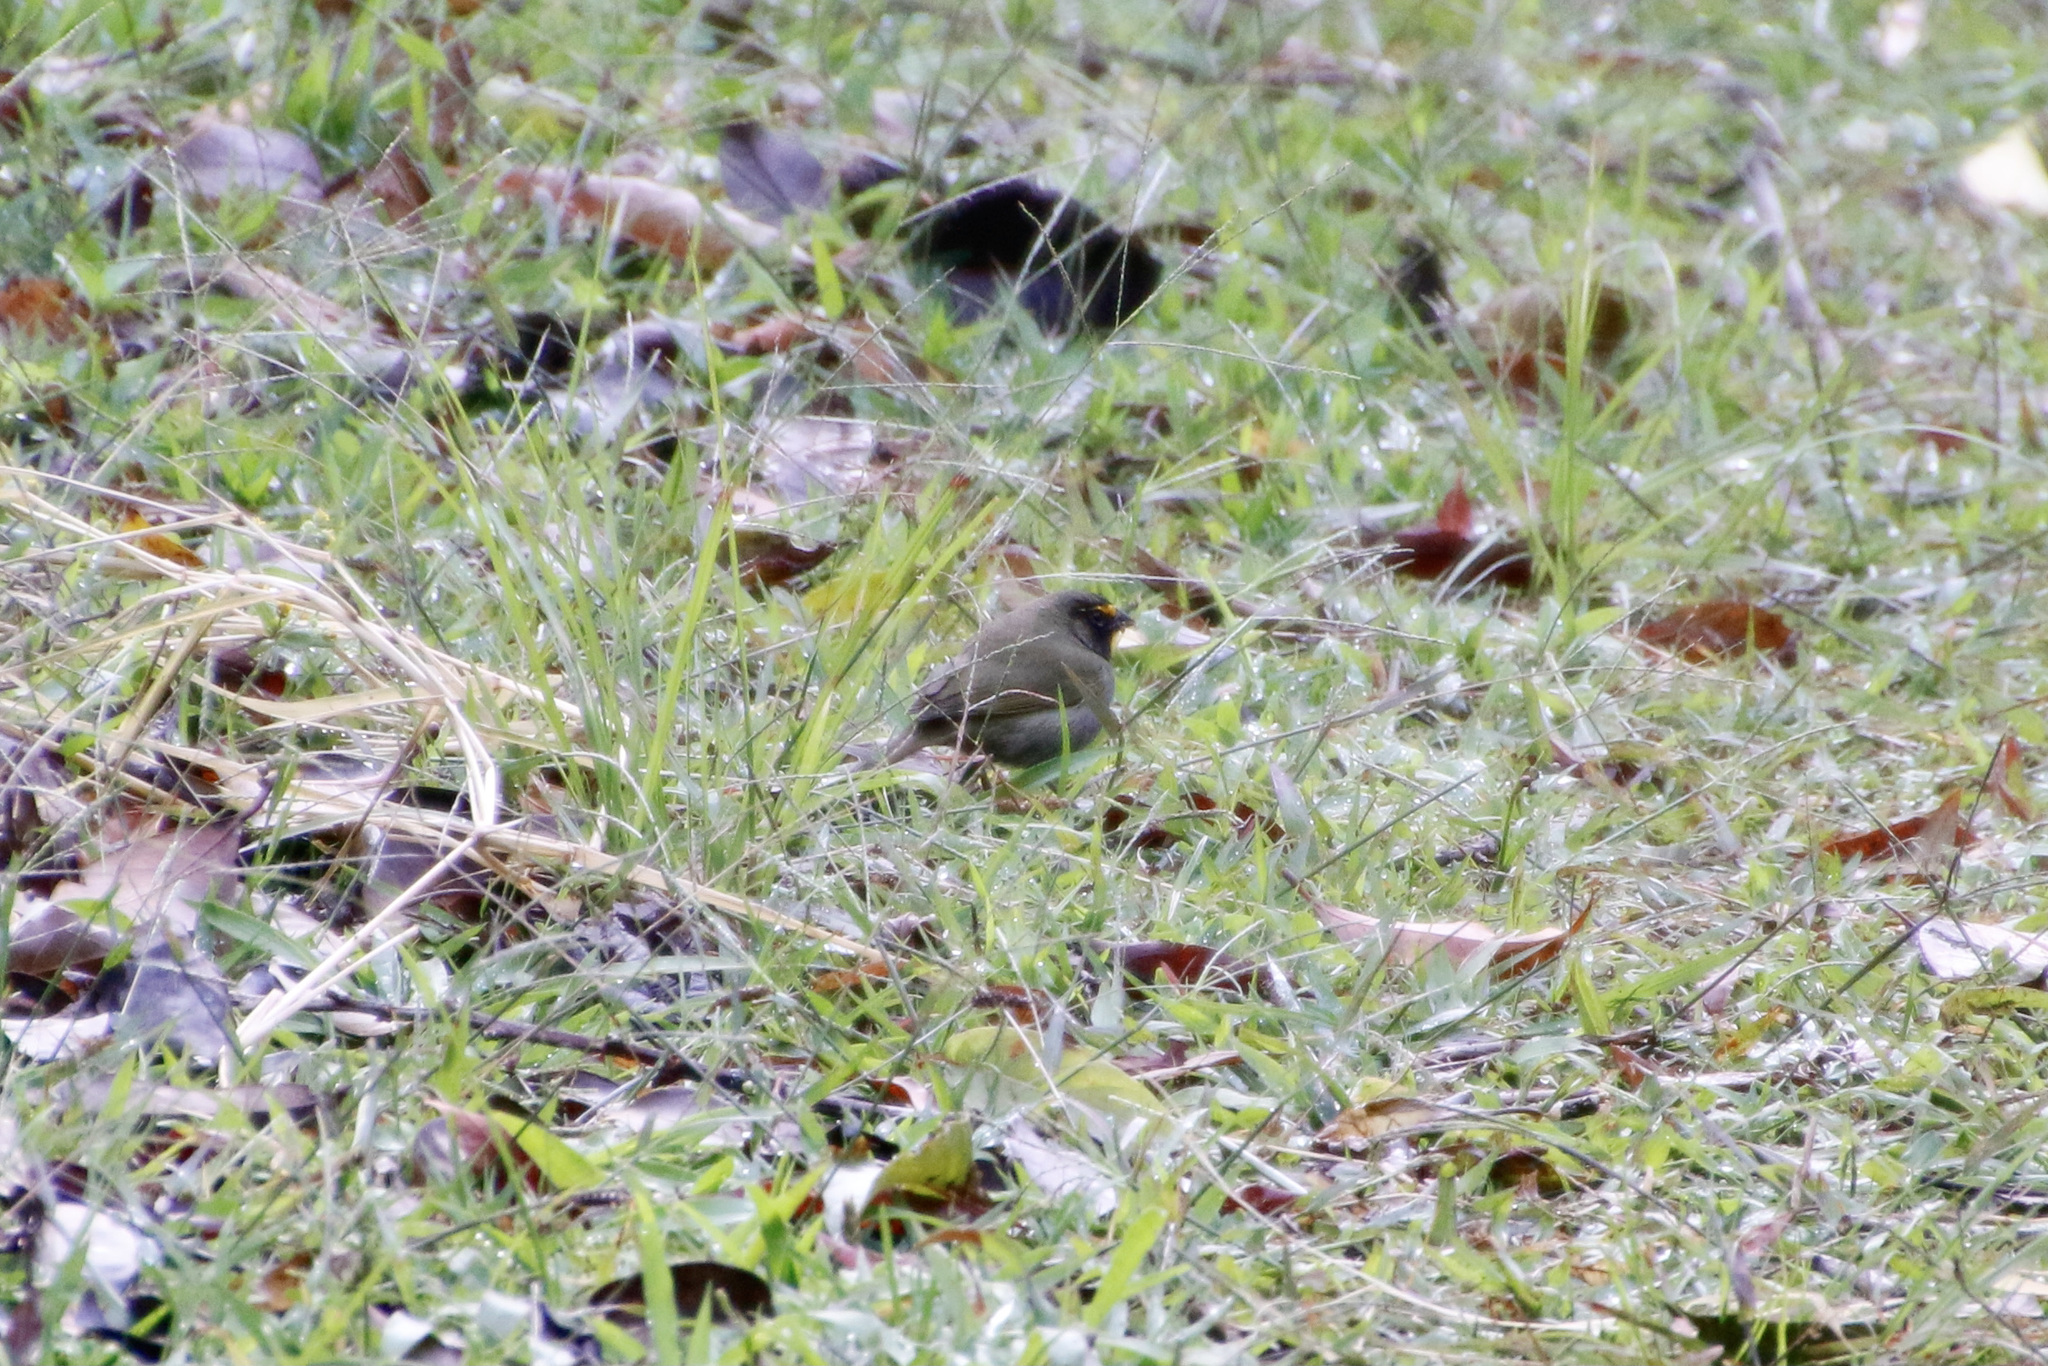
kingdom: Animalia
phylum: Chordata
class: Aves
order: Passeriformes
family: Thraupidae
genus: Tiaris
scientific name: Tiaris olivaceus
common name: Yellow-faced grassquit
